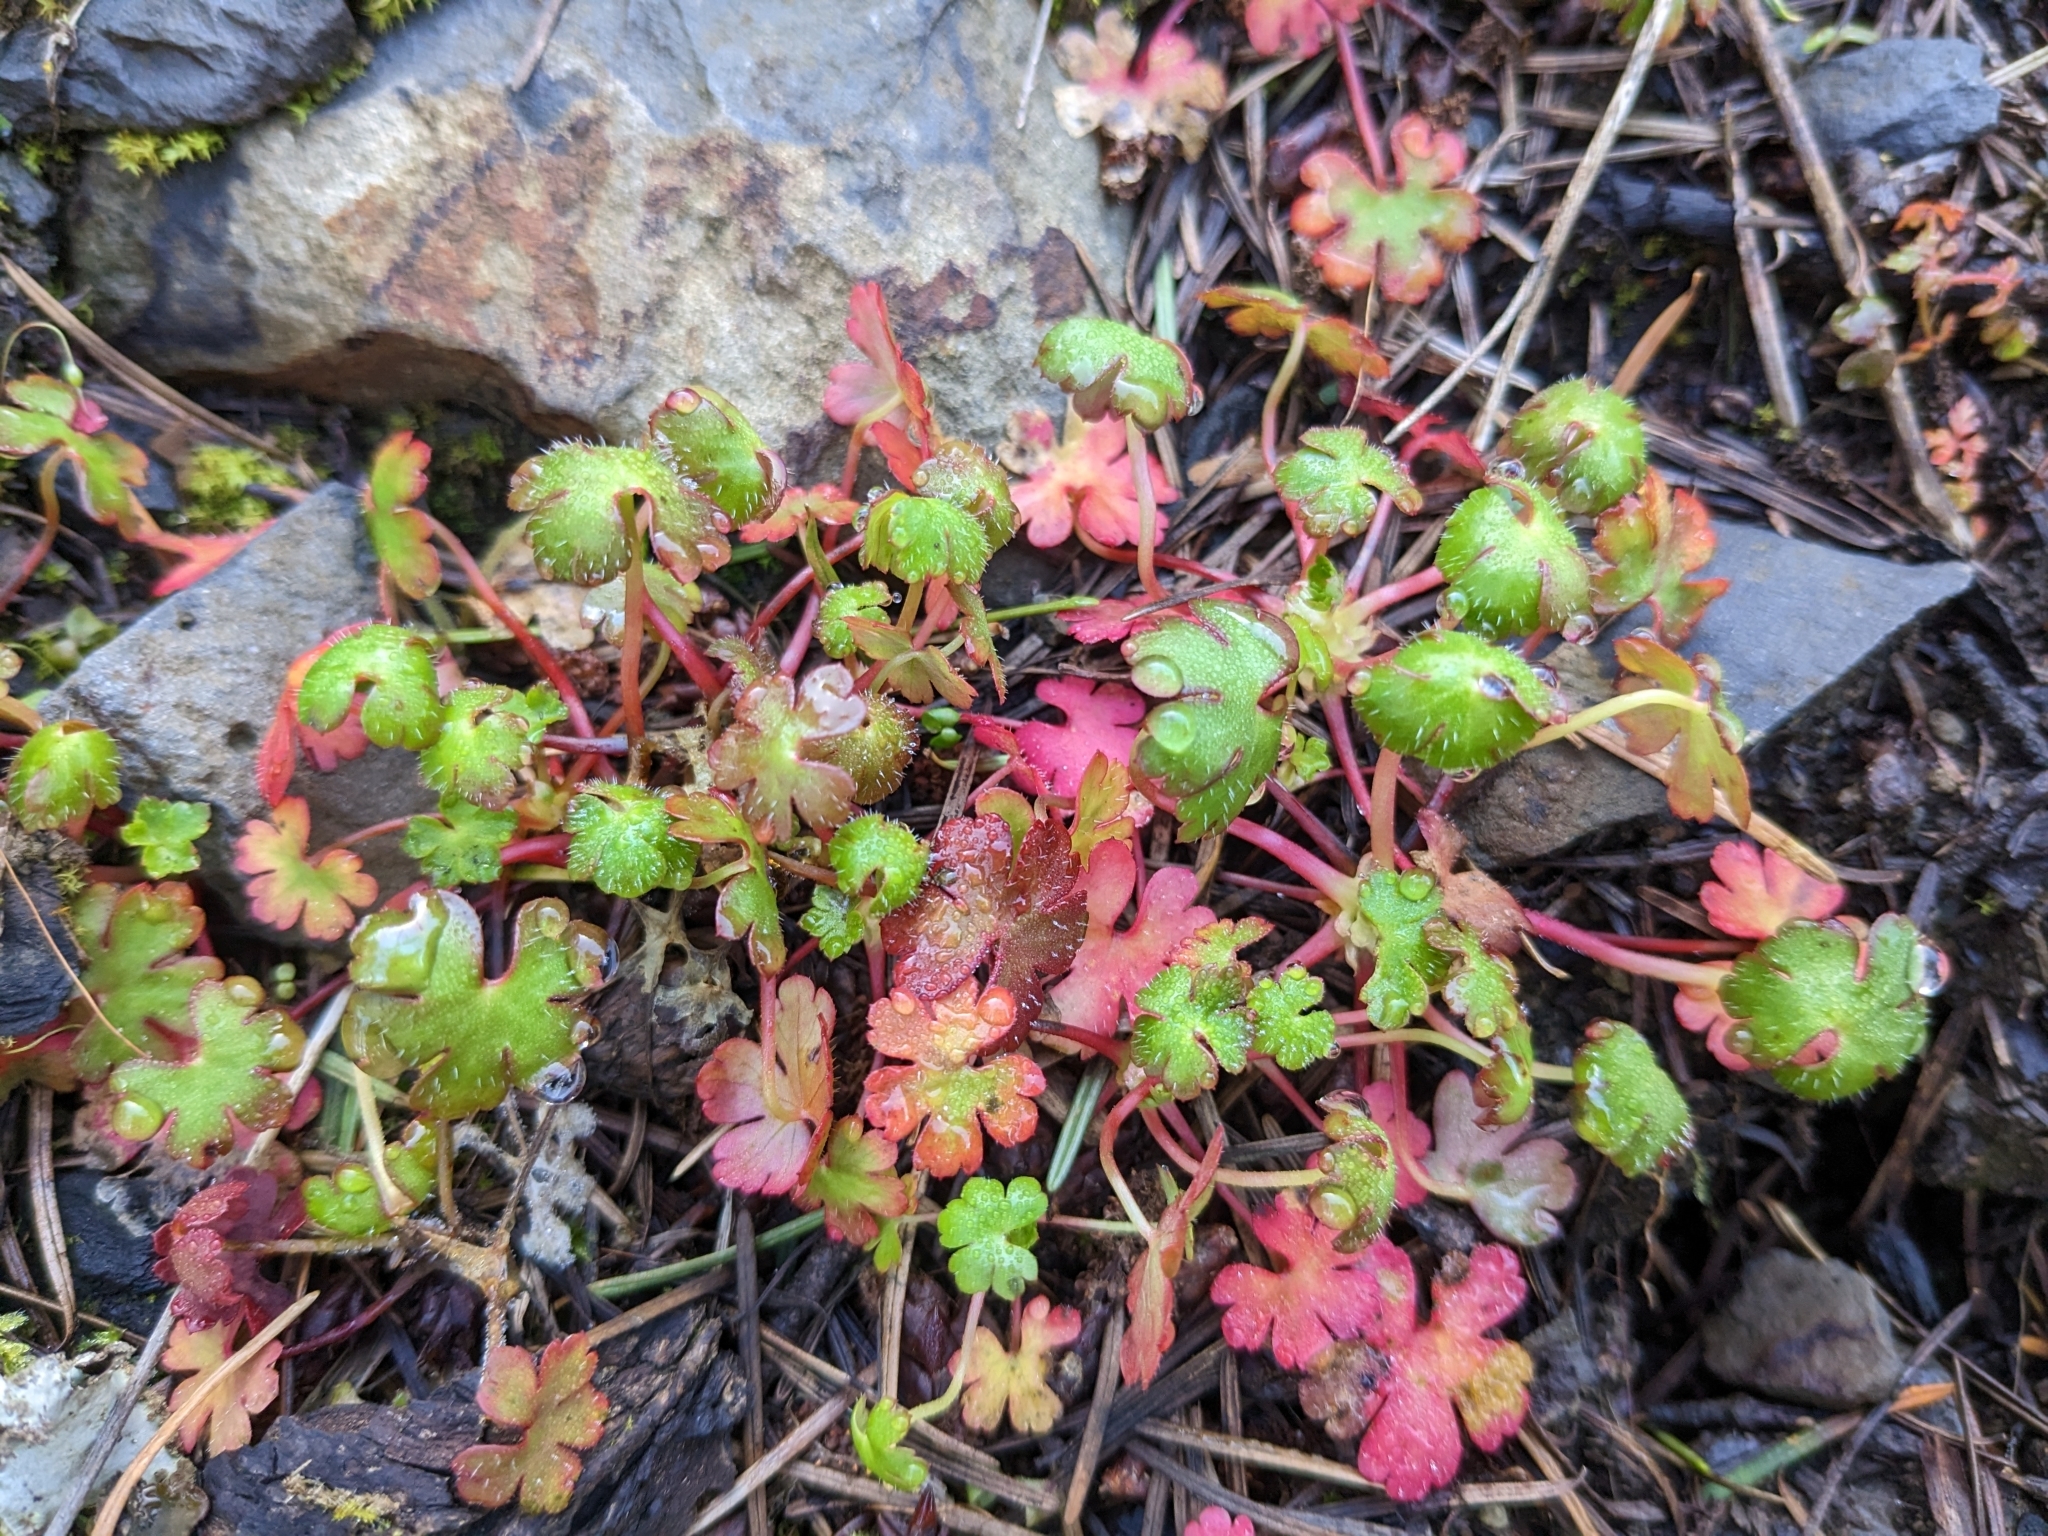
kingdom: Plantae
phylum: Tracheophyta
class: Magnoliopsida
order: Geraniales
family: Geraniaceae
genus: Geranium
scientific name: Geranium lucidum
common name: Shining crane's-bill
